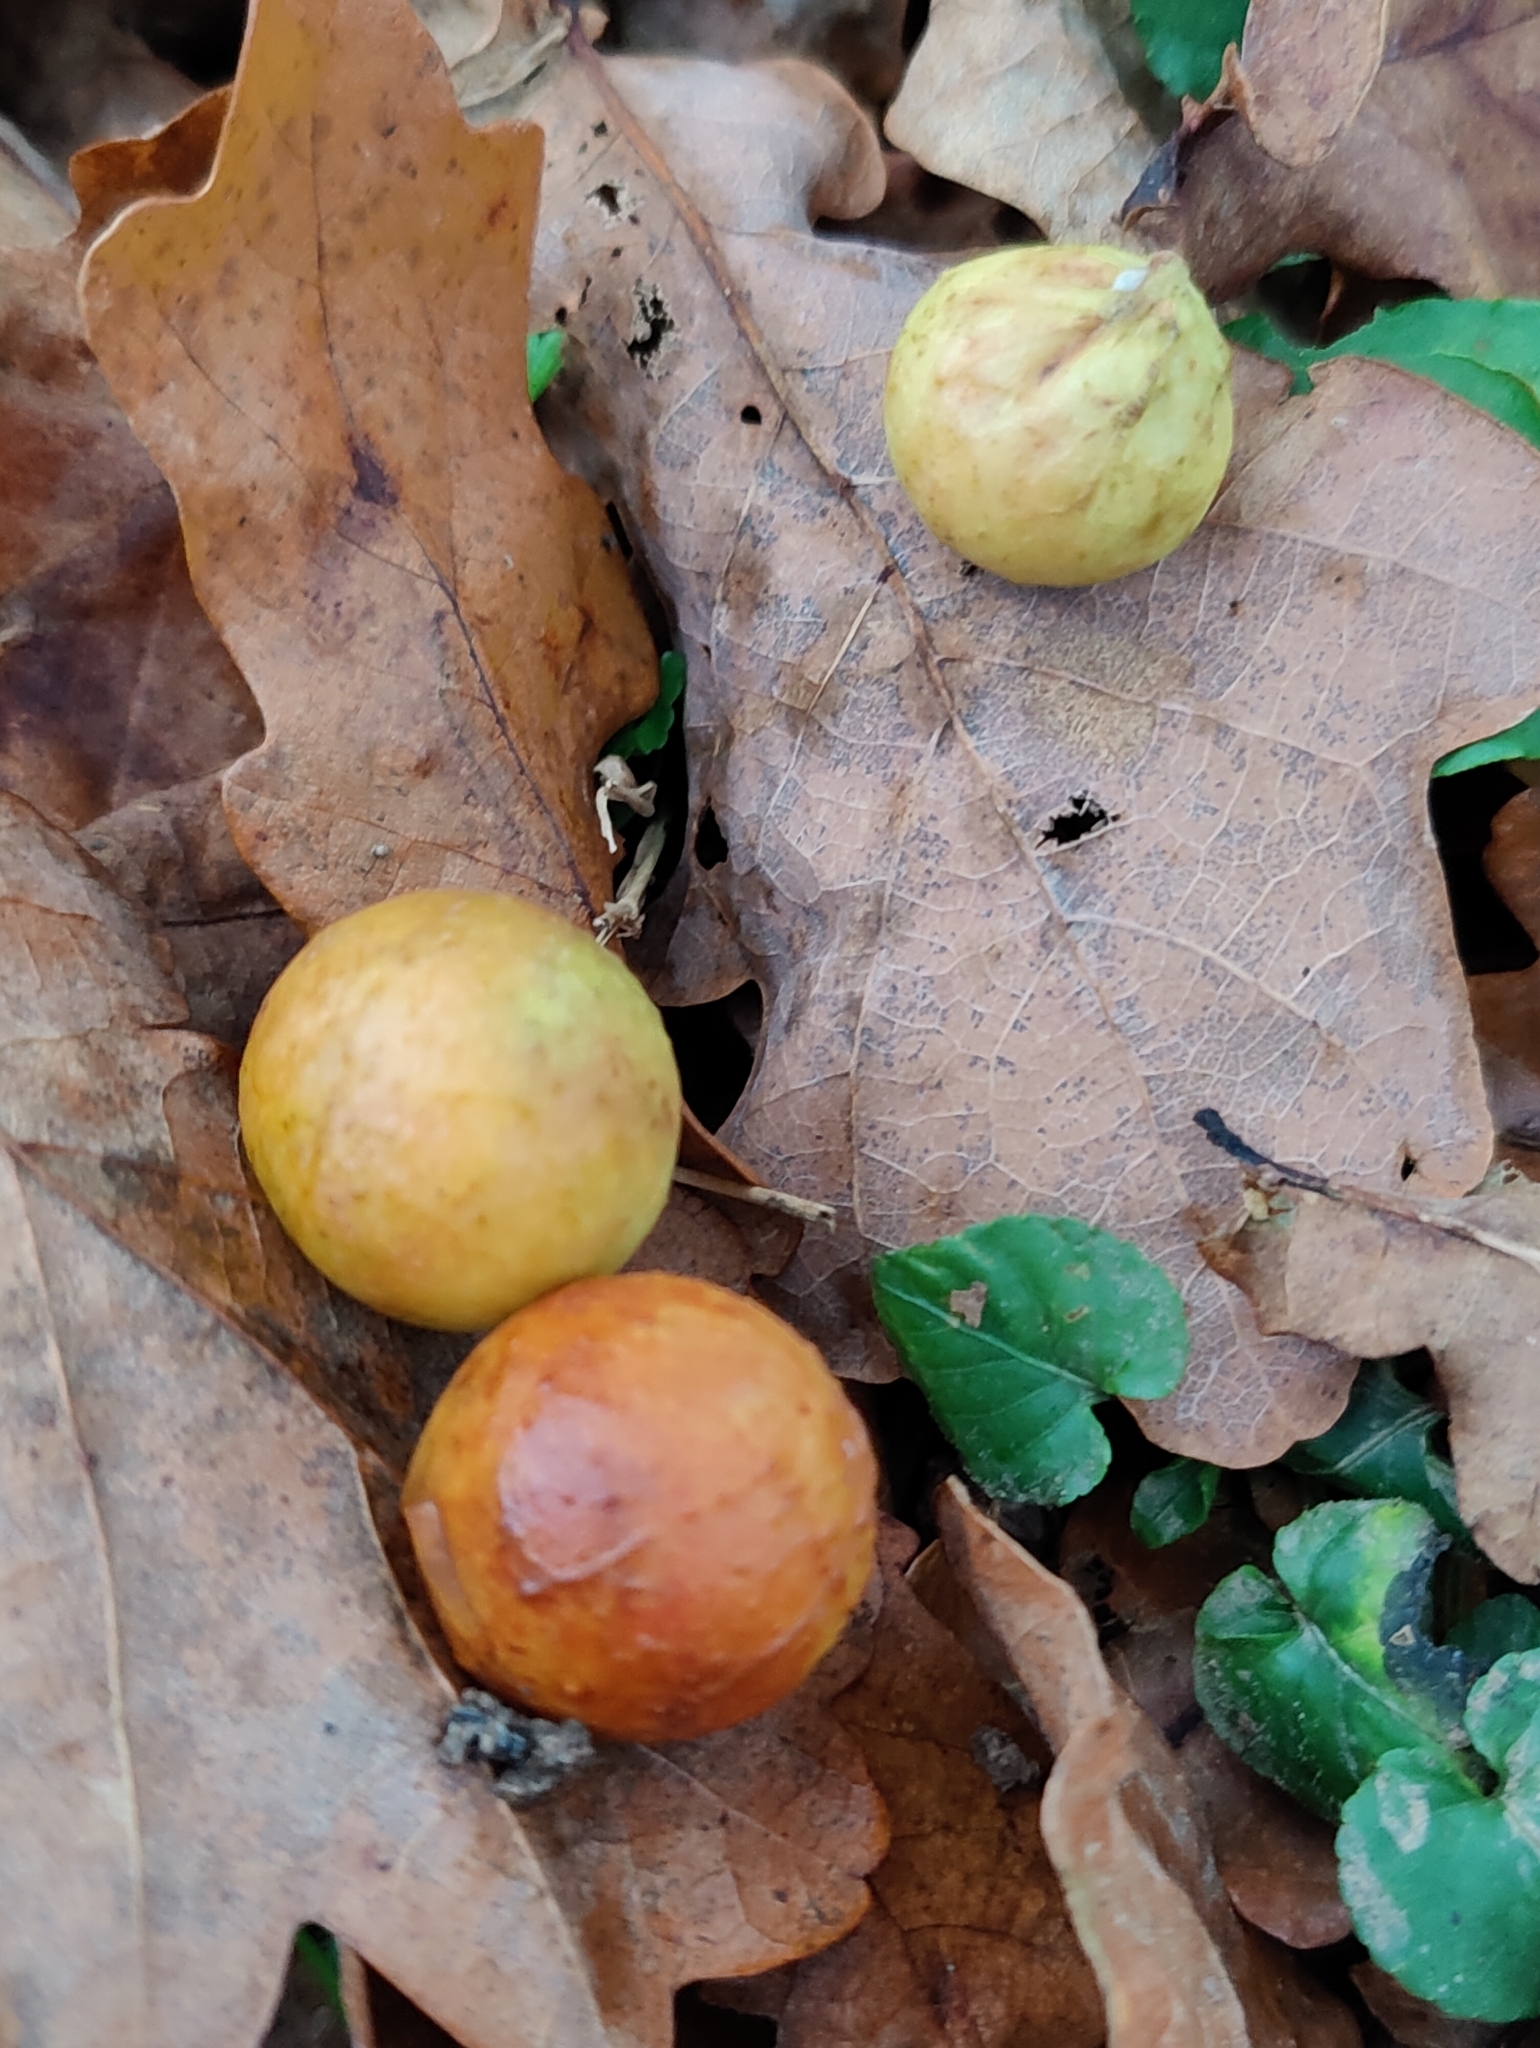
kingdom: Animalia
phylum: Arthropoda
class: Insecta
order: Hymenoptera
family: Cynipidae
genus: Cynips
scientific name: Cynips quercusfolii
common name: Cherry gall
